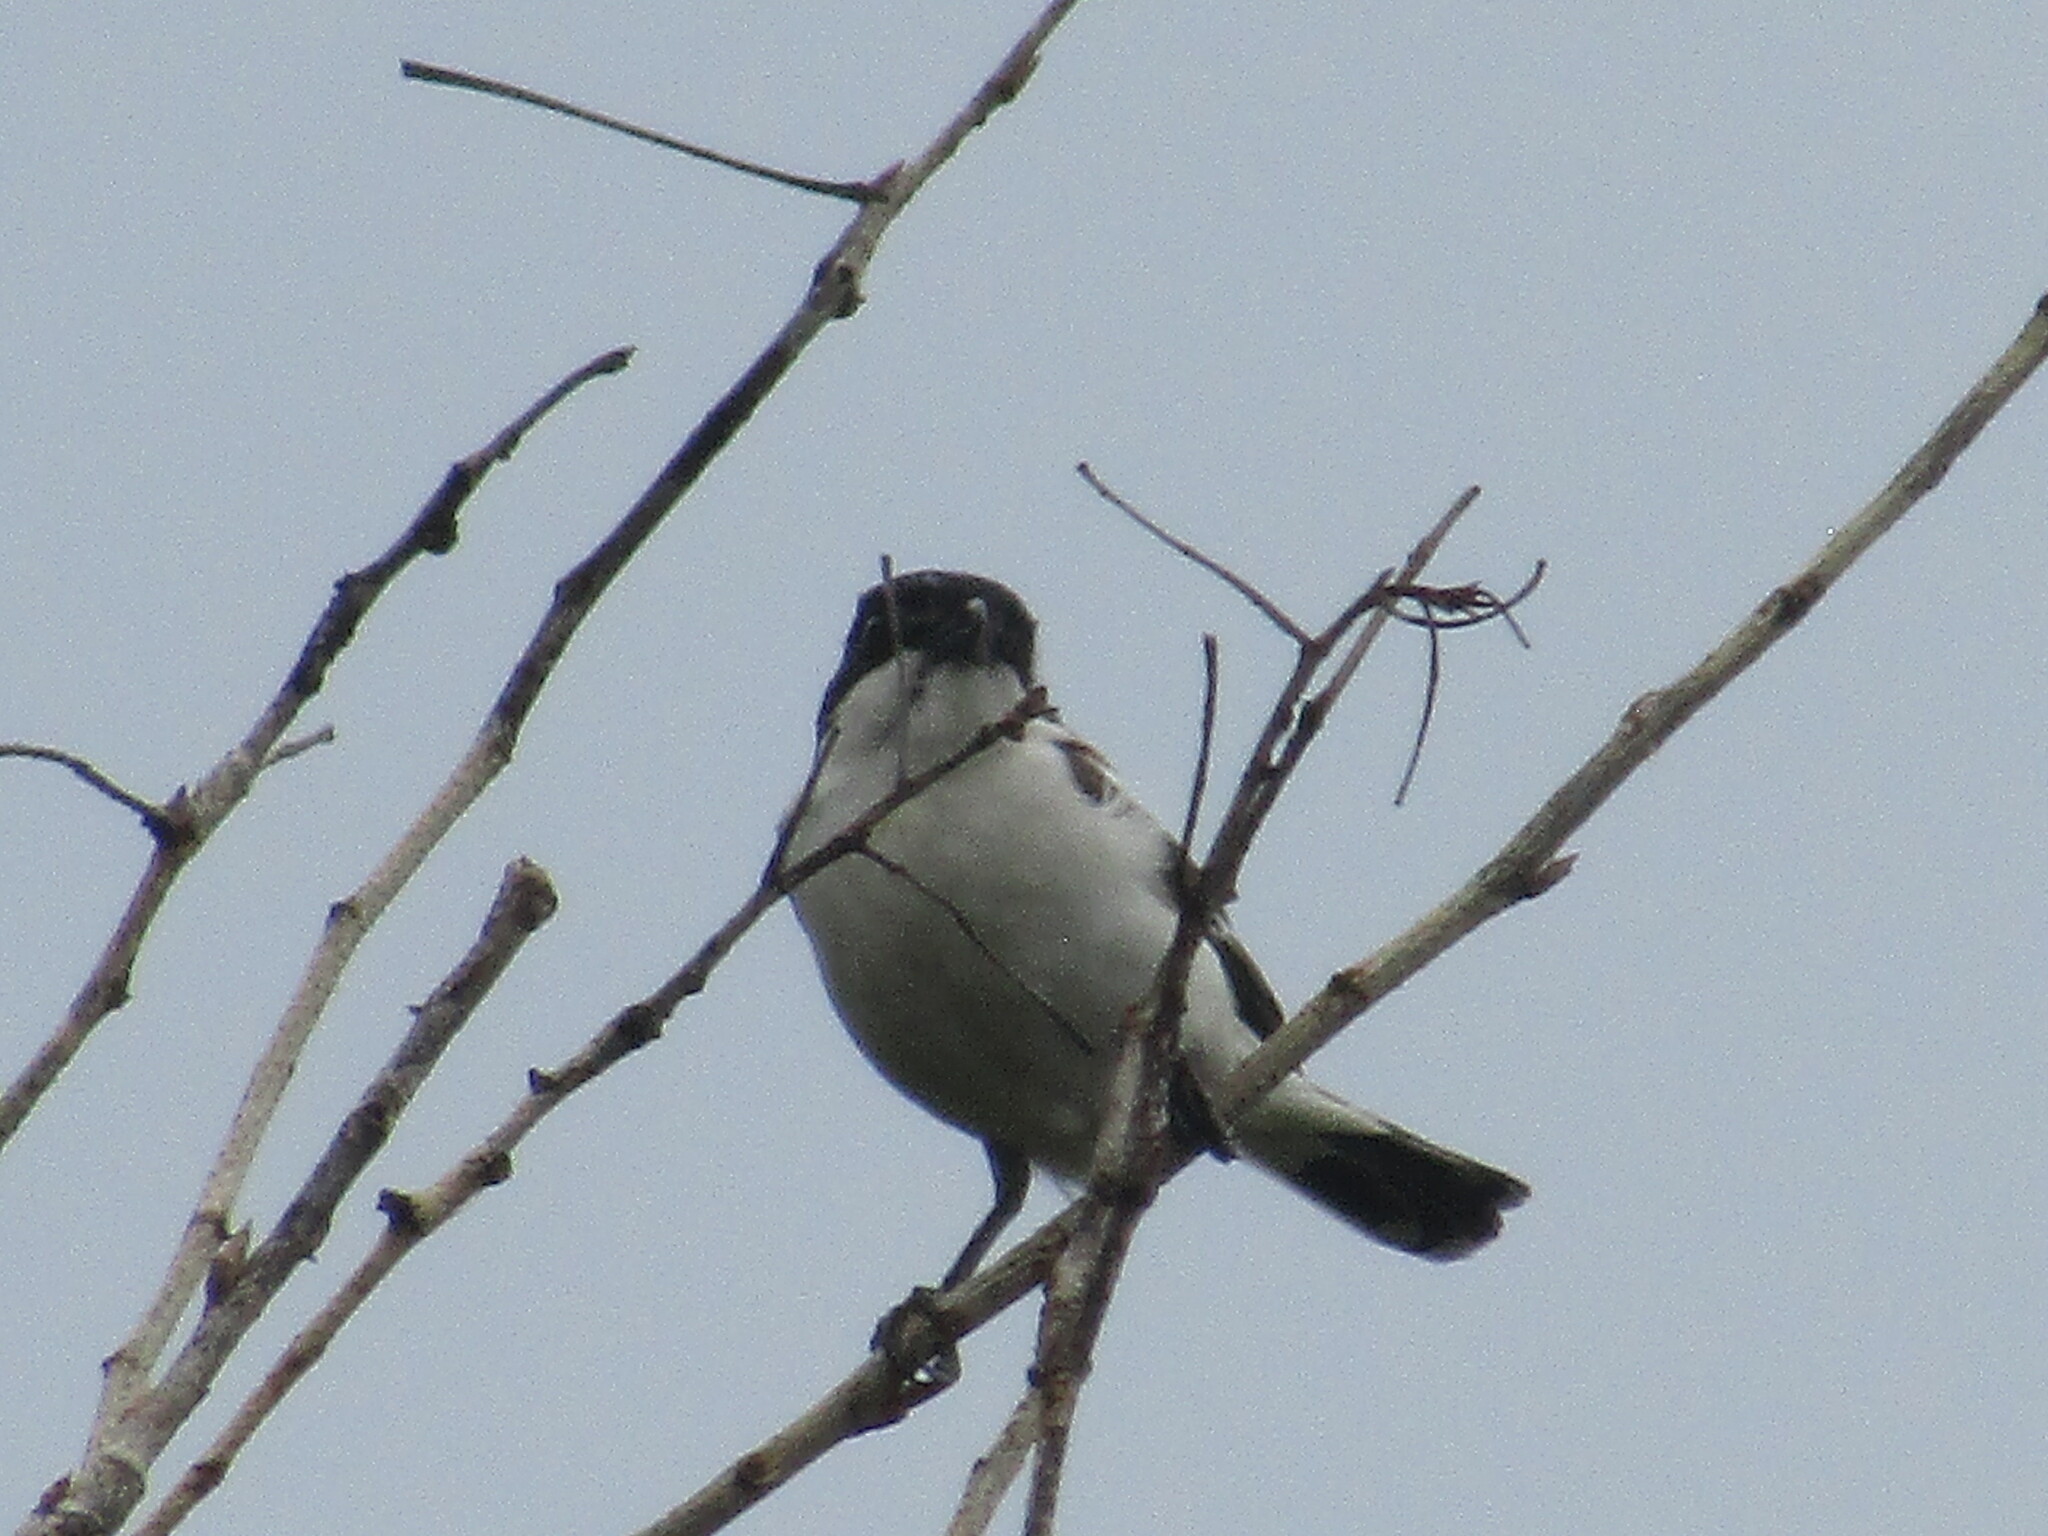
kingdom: Animalia
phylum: Chordata
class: Aves
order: Passeriformes
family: Laniidae
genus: Lanius
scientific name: Lanius senator
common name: Woodchat shrike
